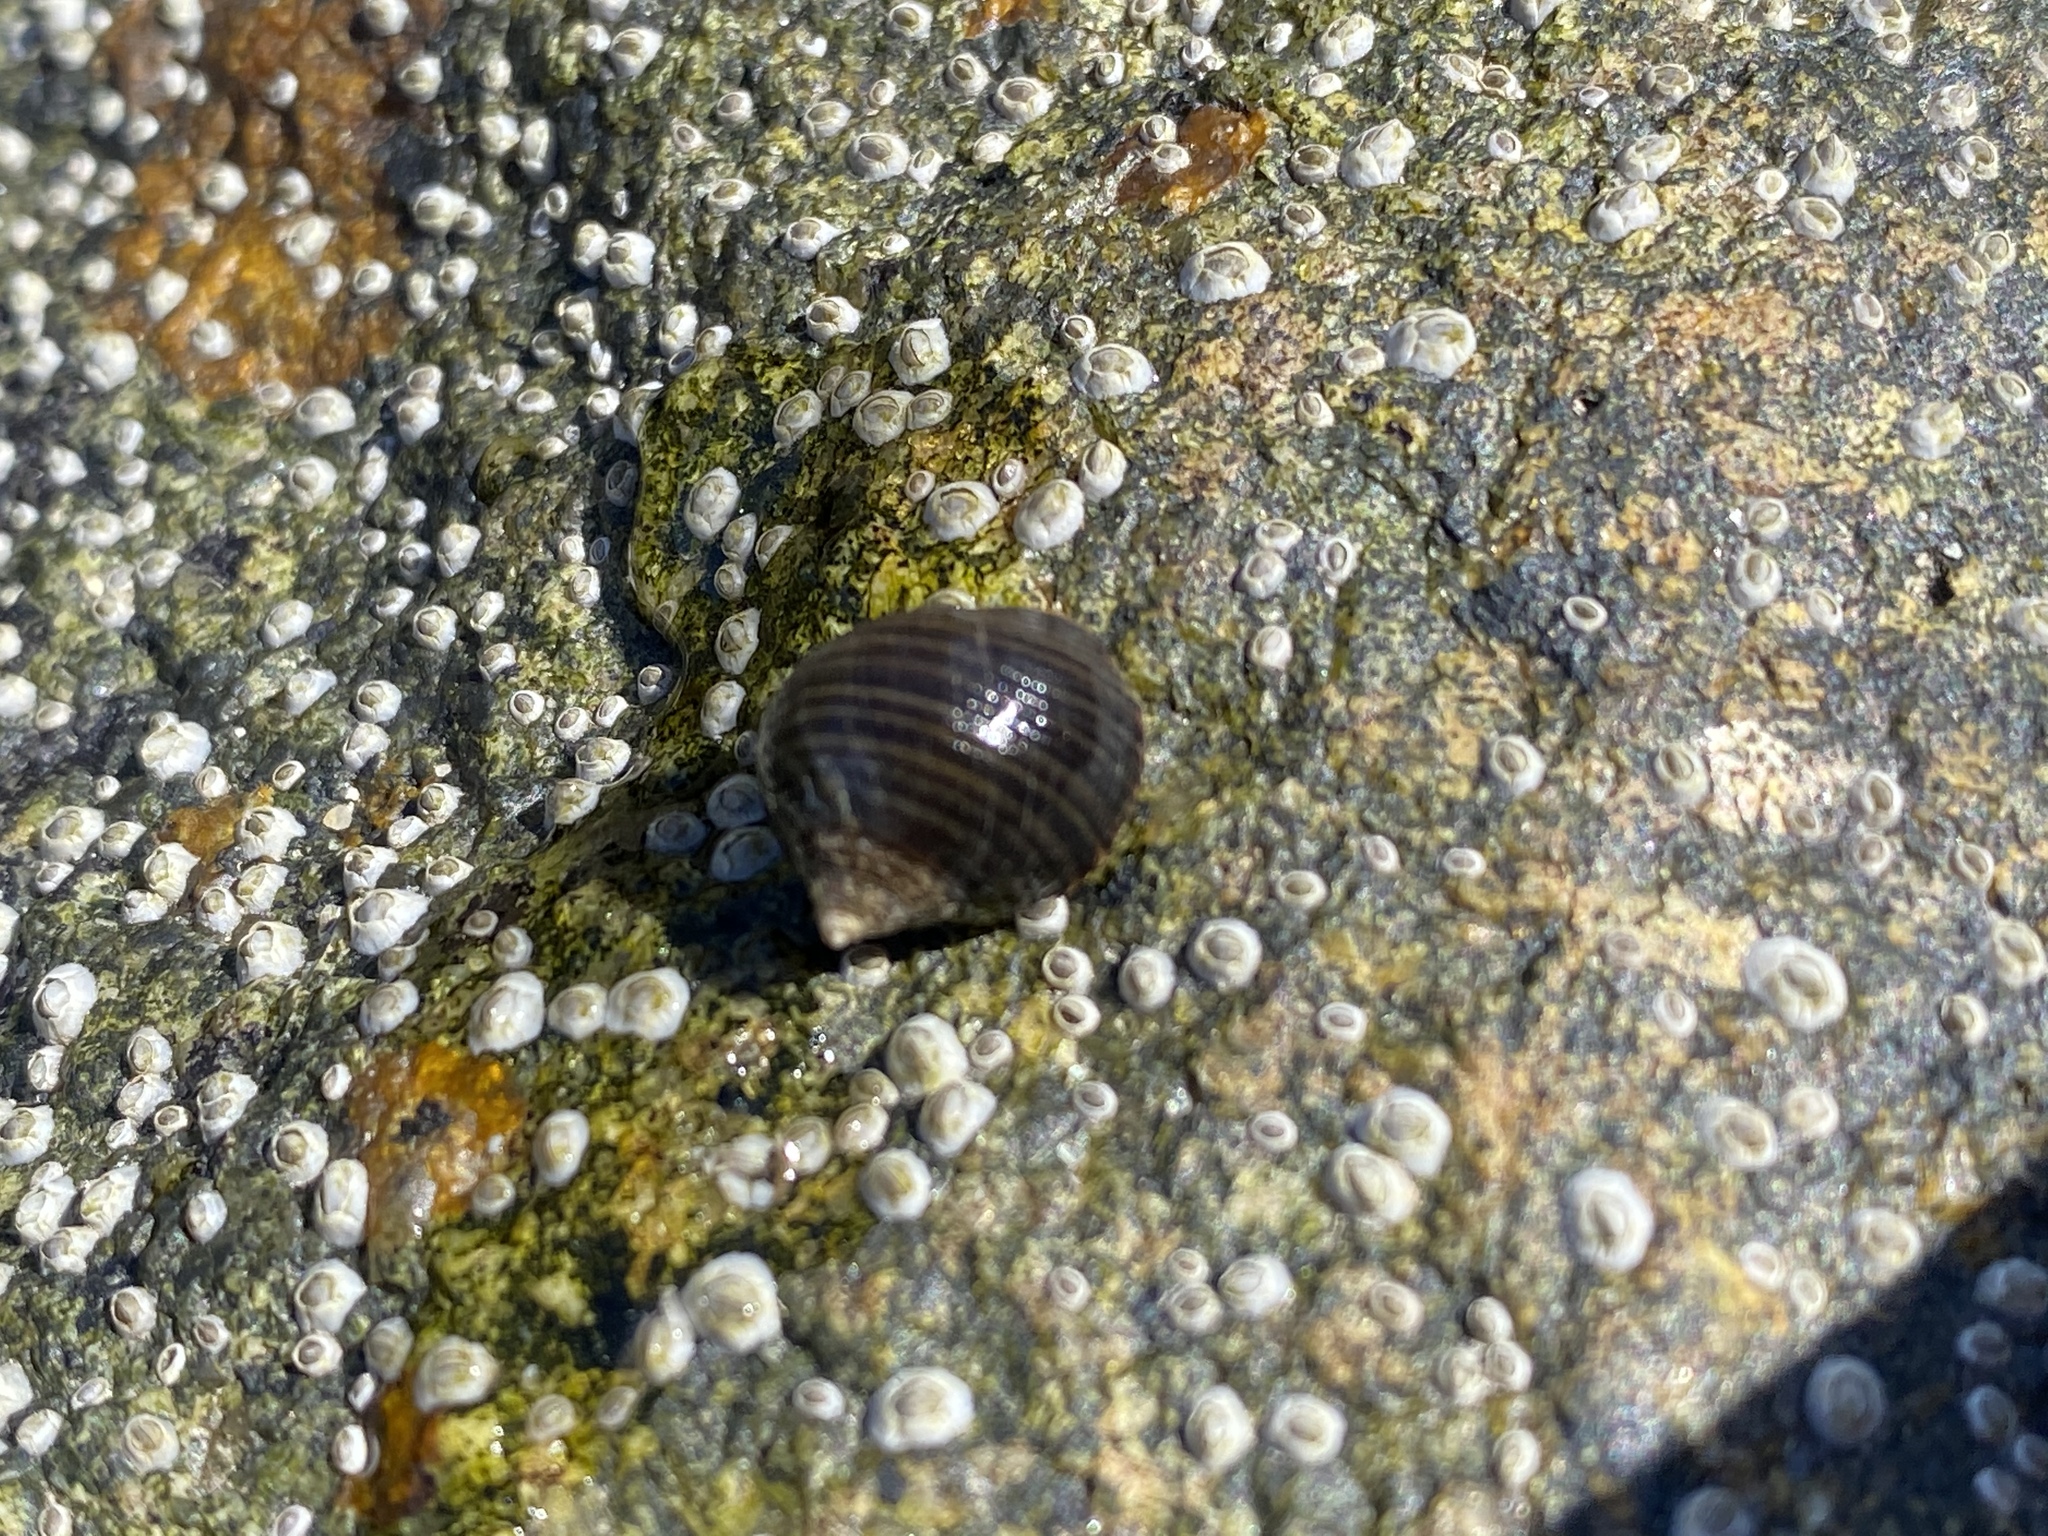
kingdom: Animalia
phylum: Mollusca
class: Gastropoda
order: Littorinimorpha
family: Littorinidae
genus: Littorina
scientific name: Littorina littorea
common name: Common periwinkle
